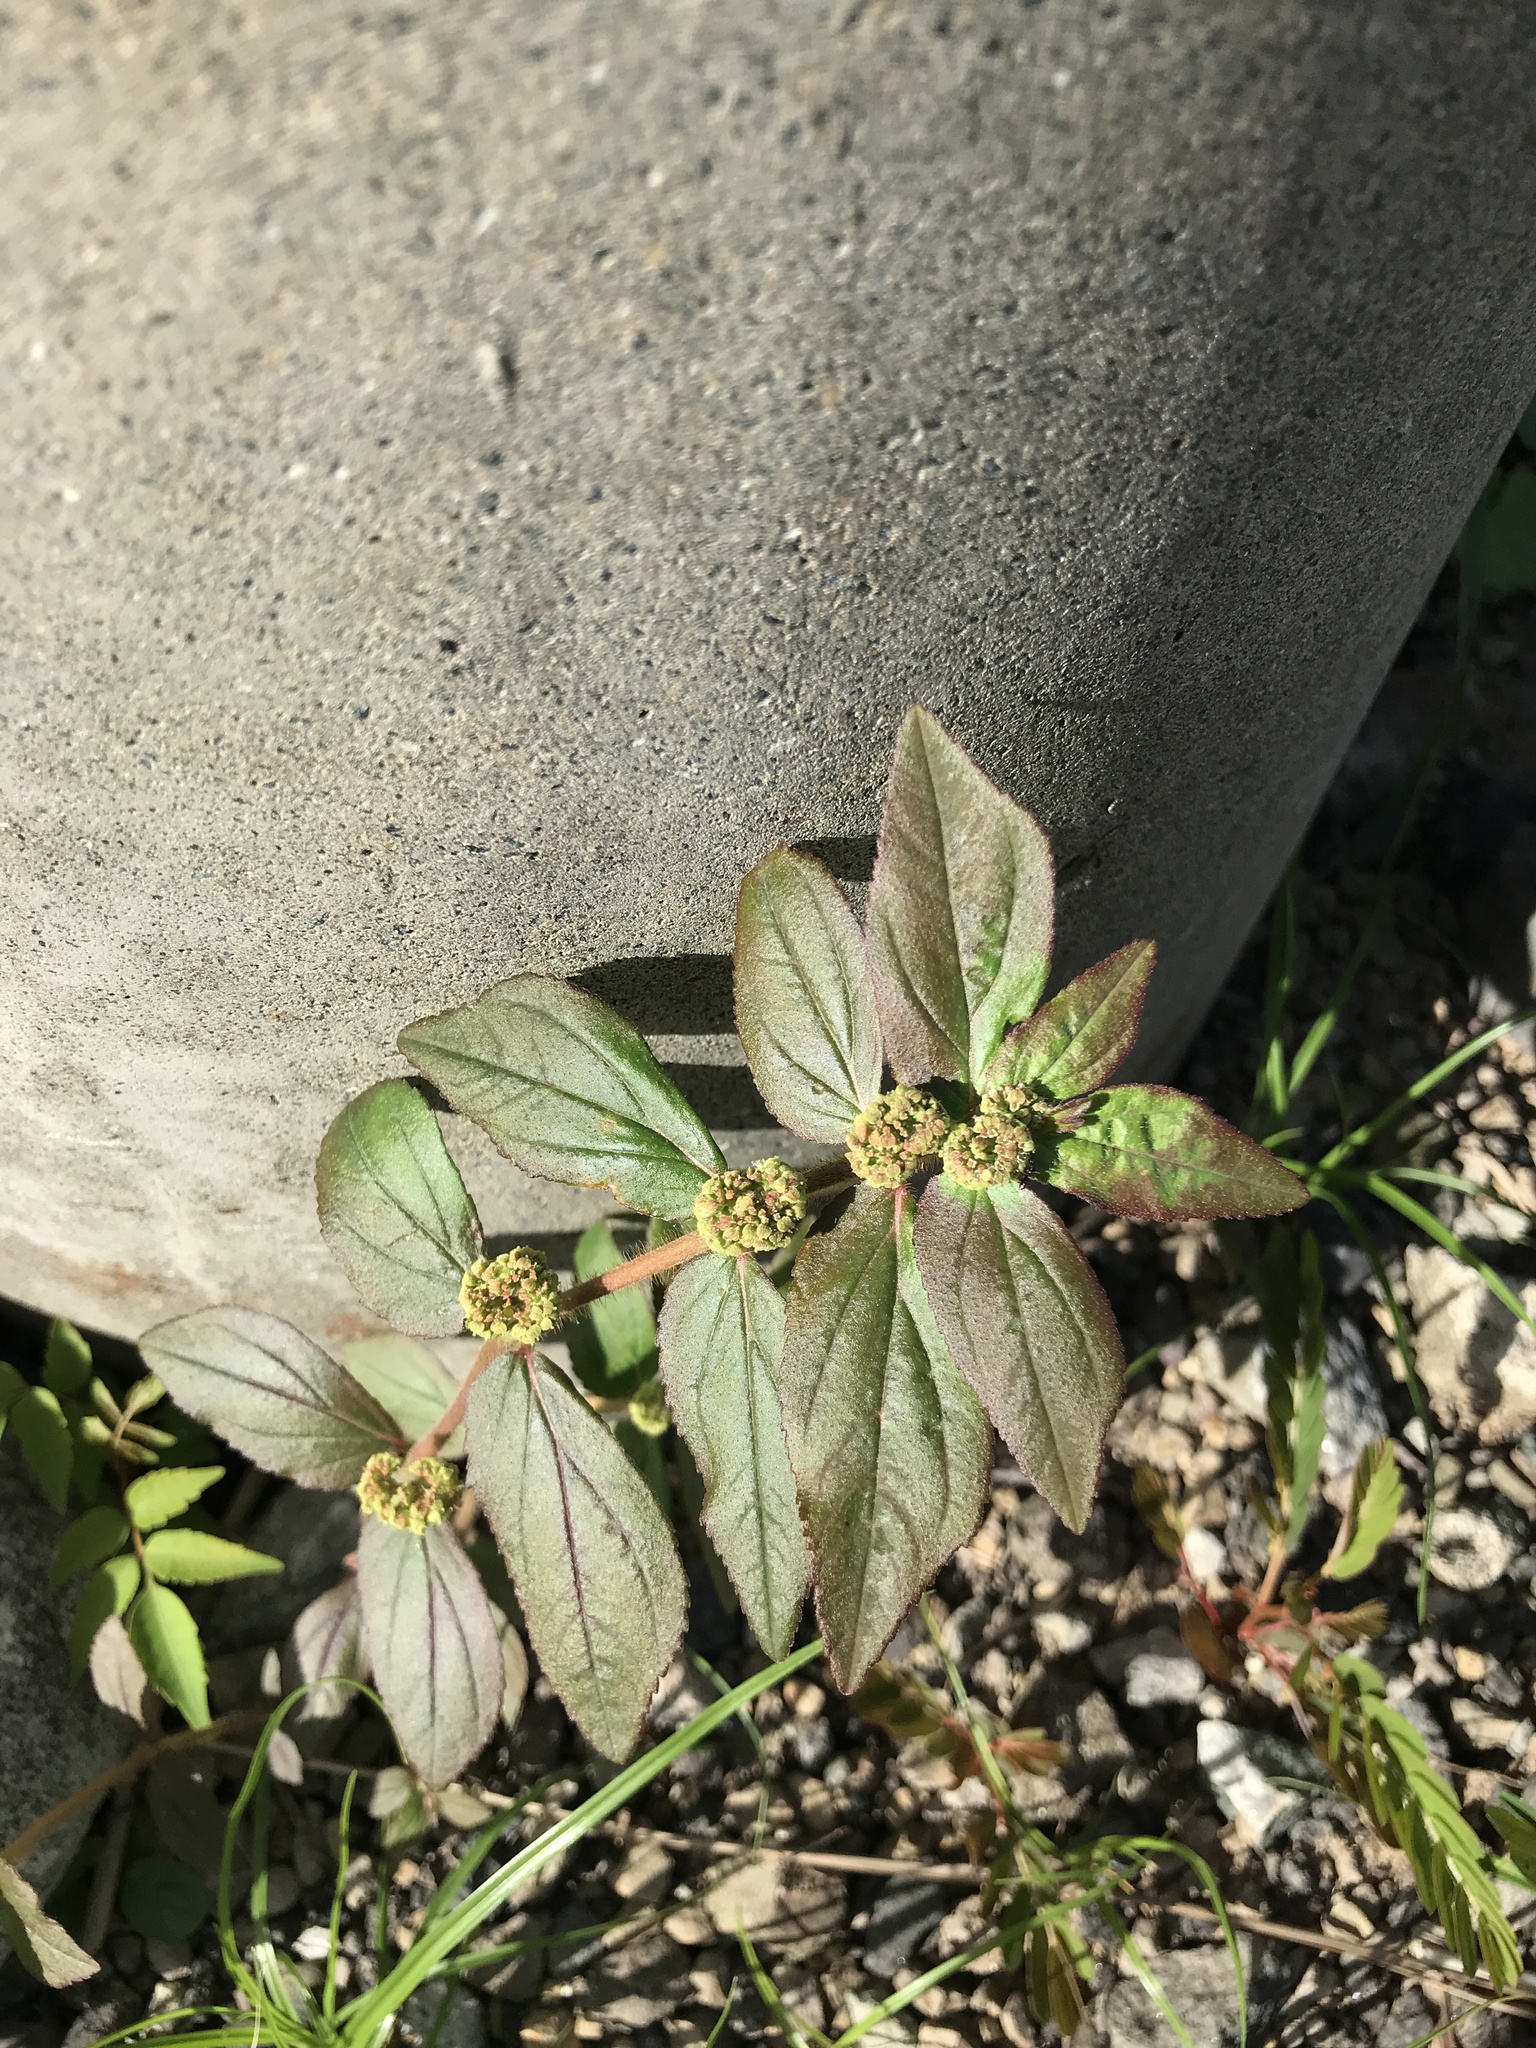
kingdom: Plantae
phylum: Tracheophyta
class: Magnoliopsida
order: Malpighiales
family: Euphorbiaceae
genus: Euphorbia
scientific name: Euphorbia hirta
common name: Pillpod sandmat
